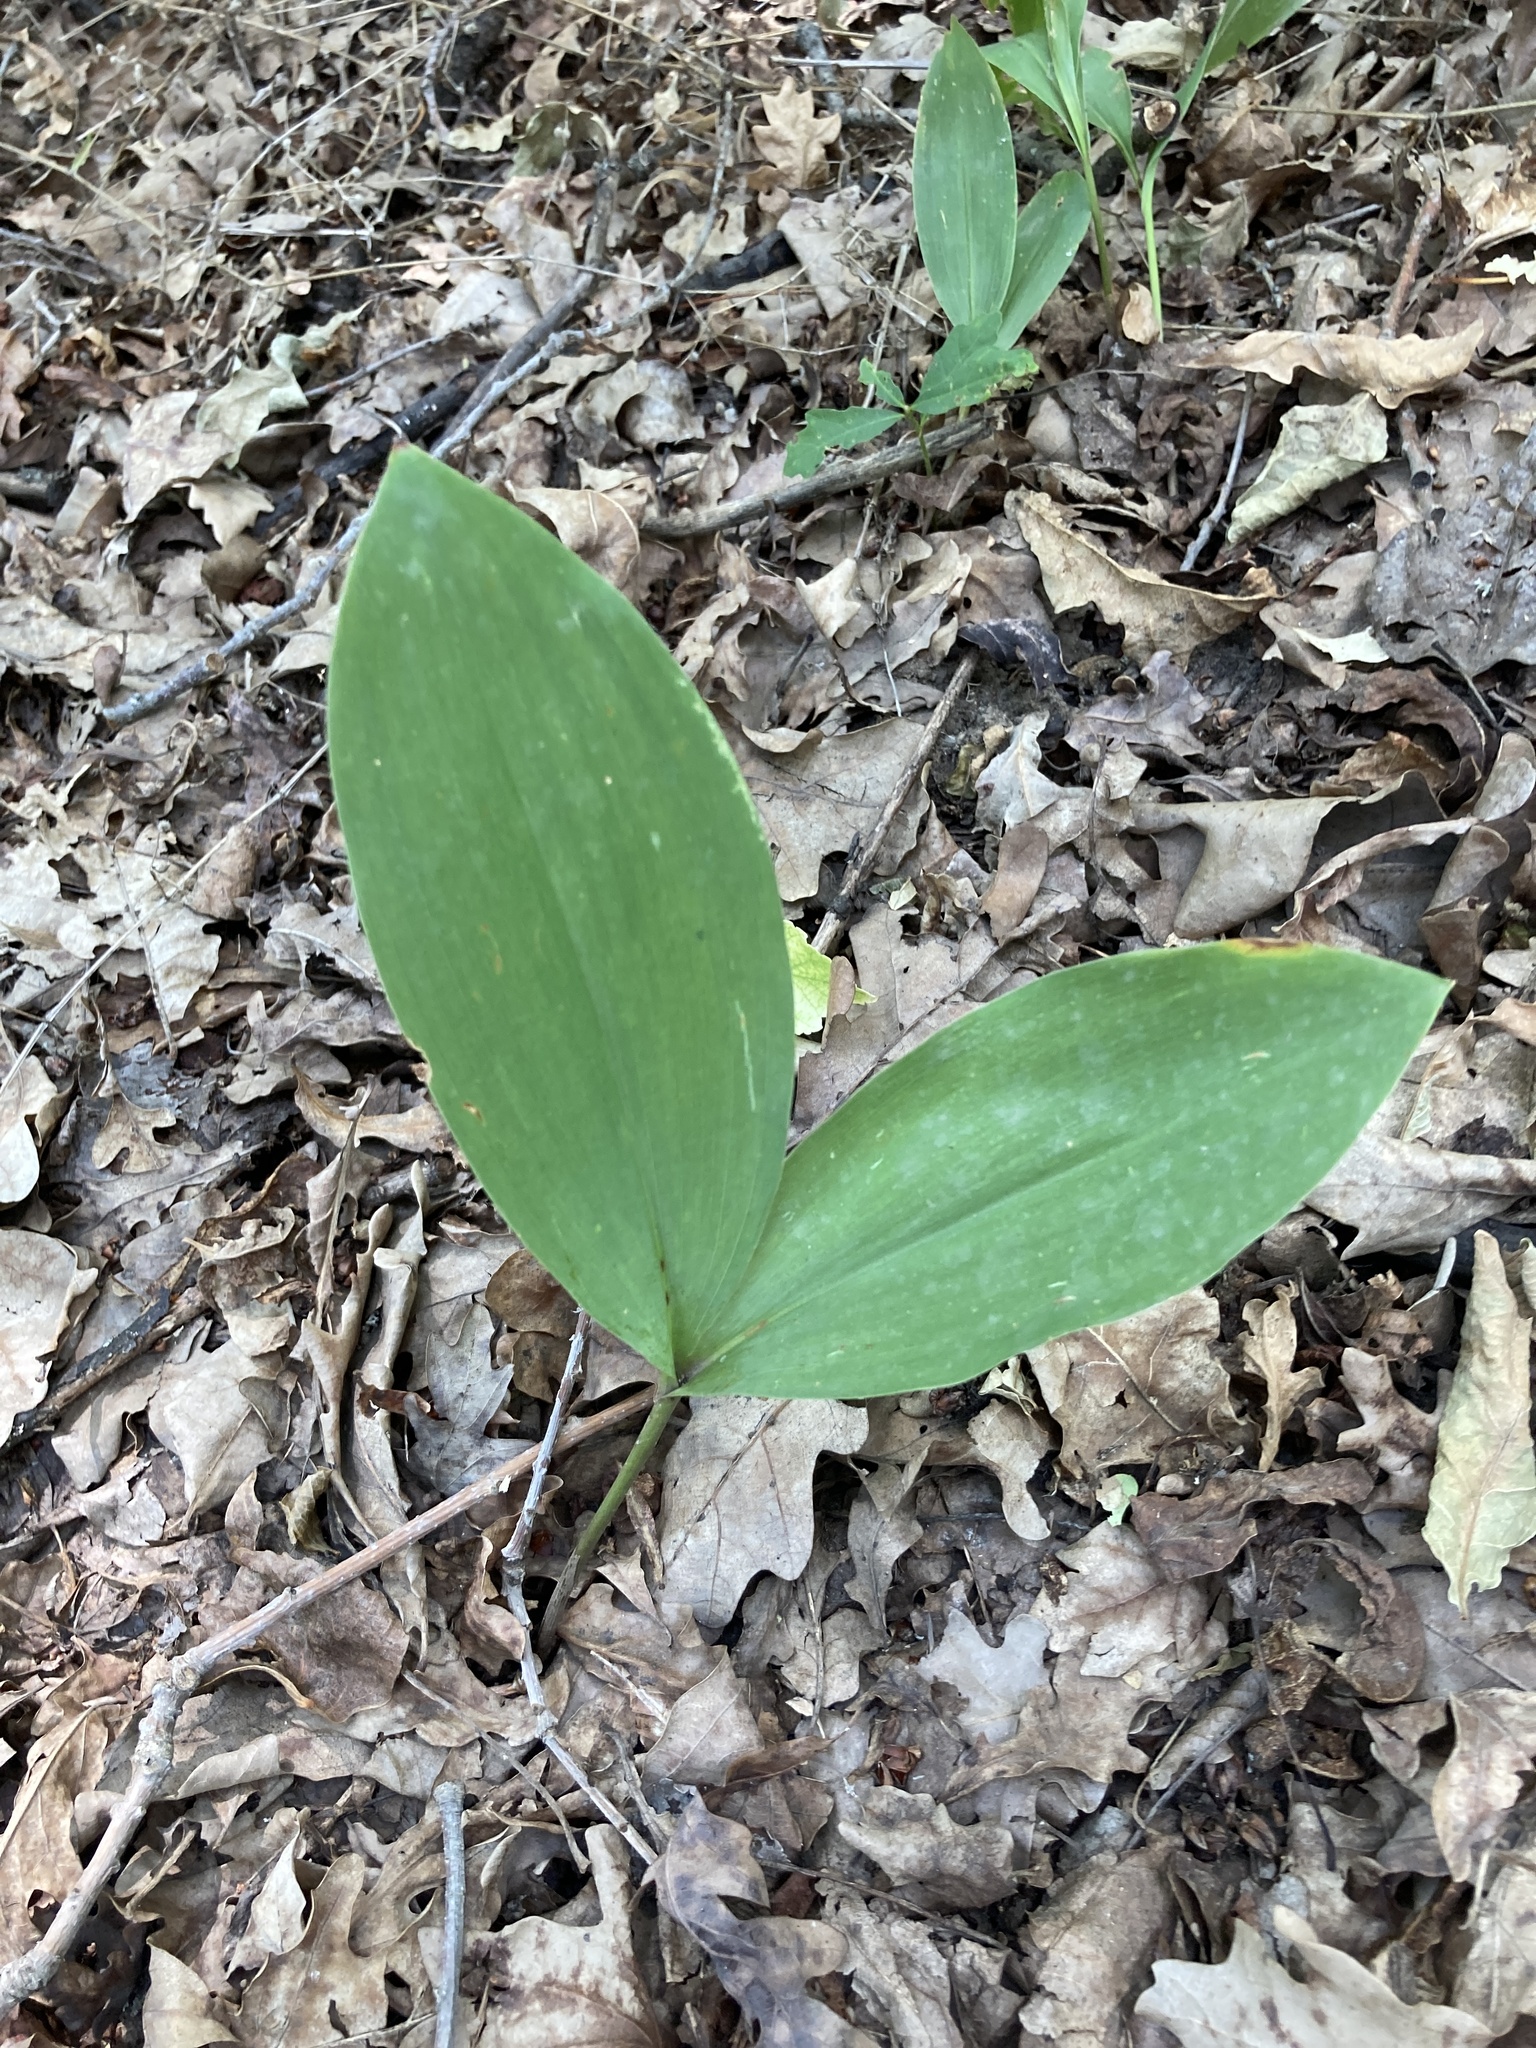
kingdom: Plantae
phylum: Tracheophyta
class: Liliopsida
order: Asparagales
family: Asparagaceae
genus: Convallaria
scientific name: Convallaria majalis
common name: Lily-of-the-valley
